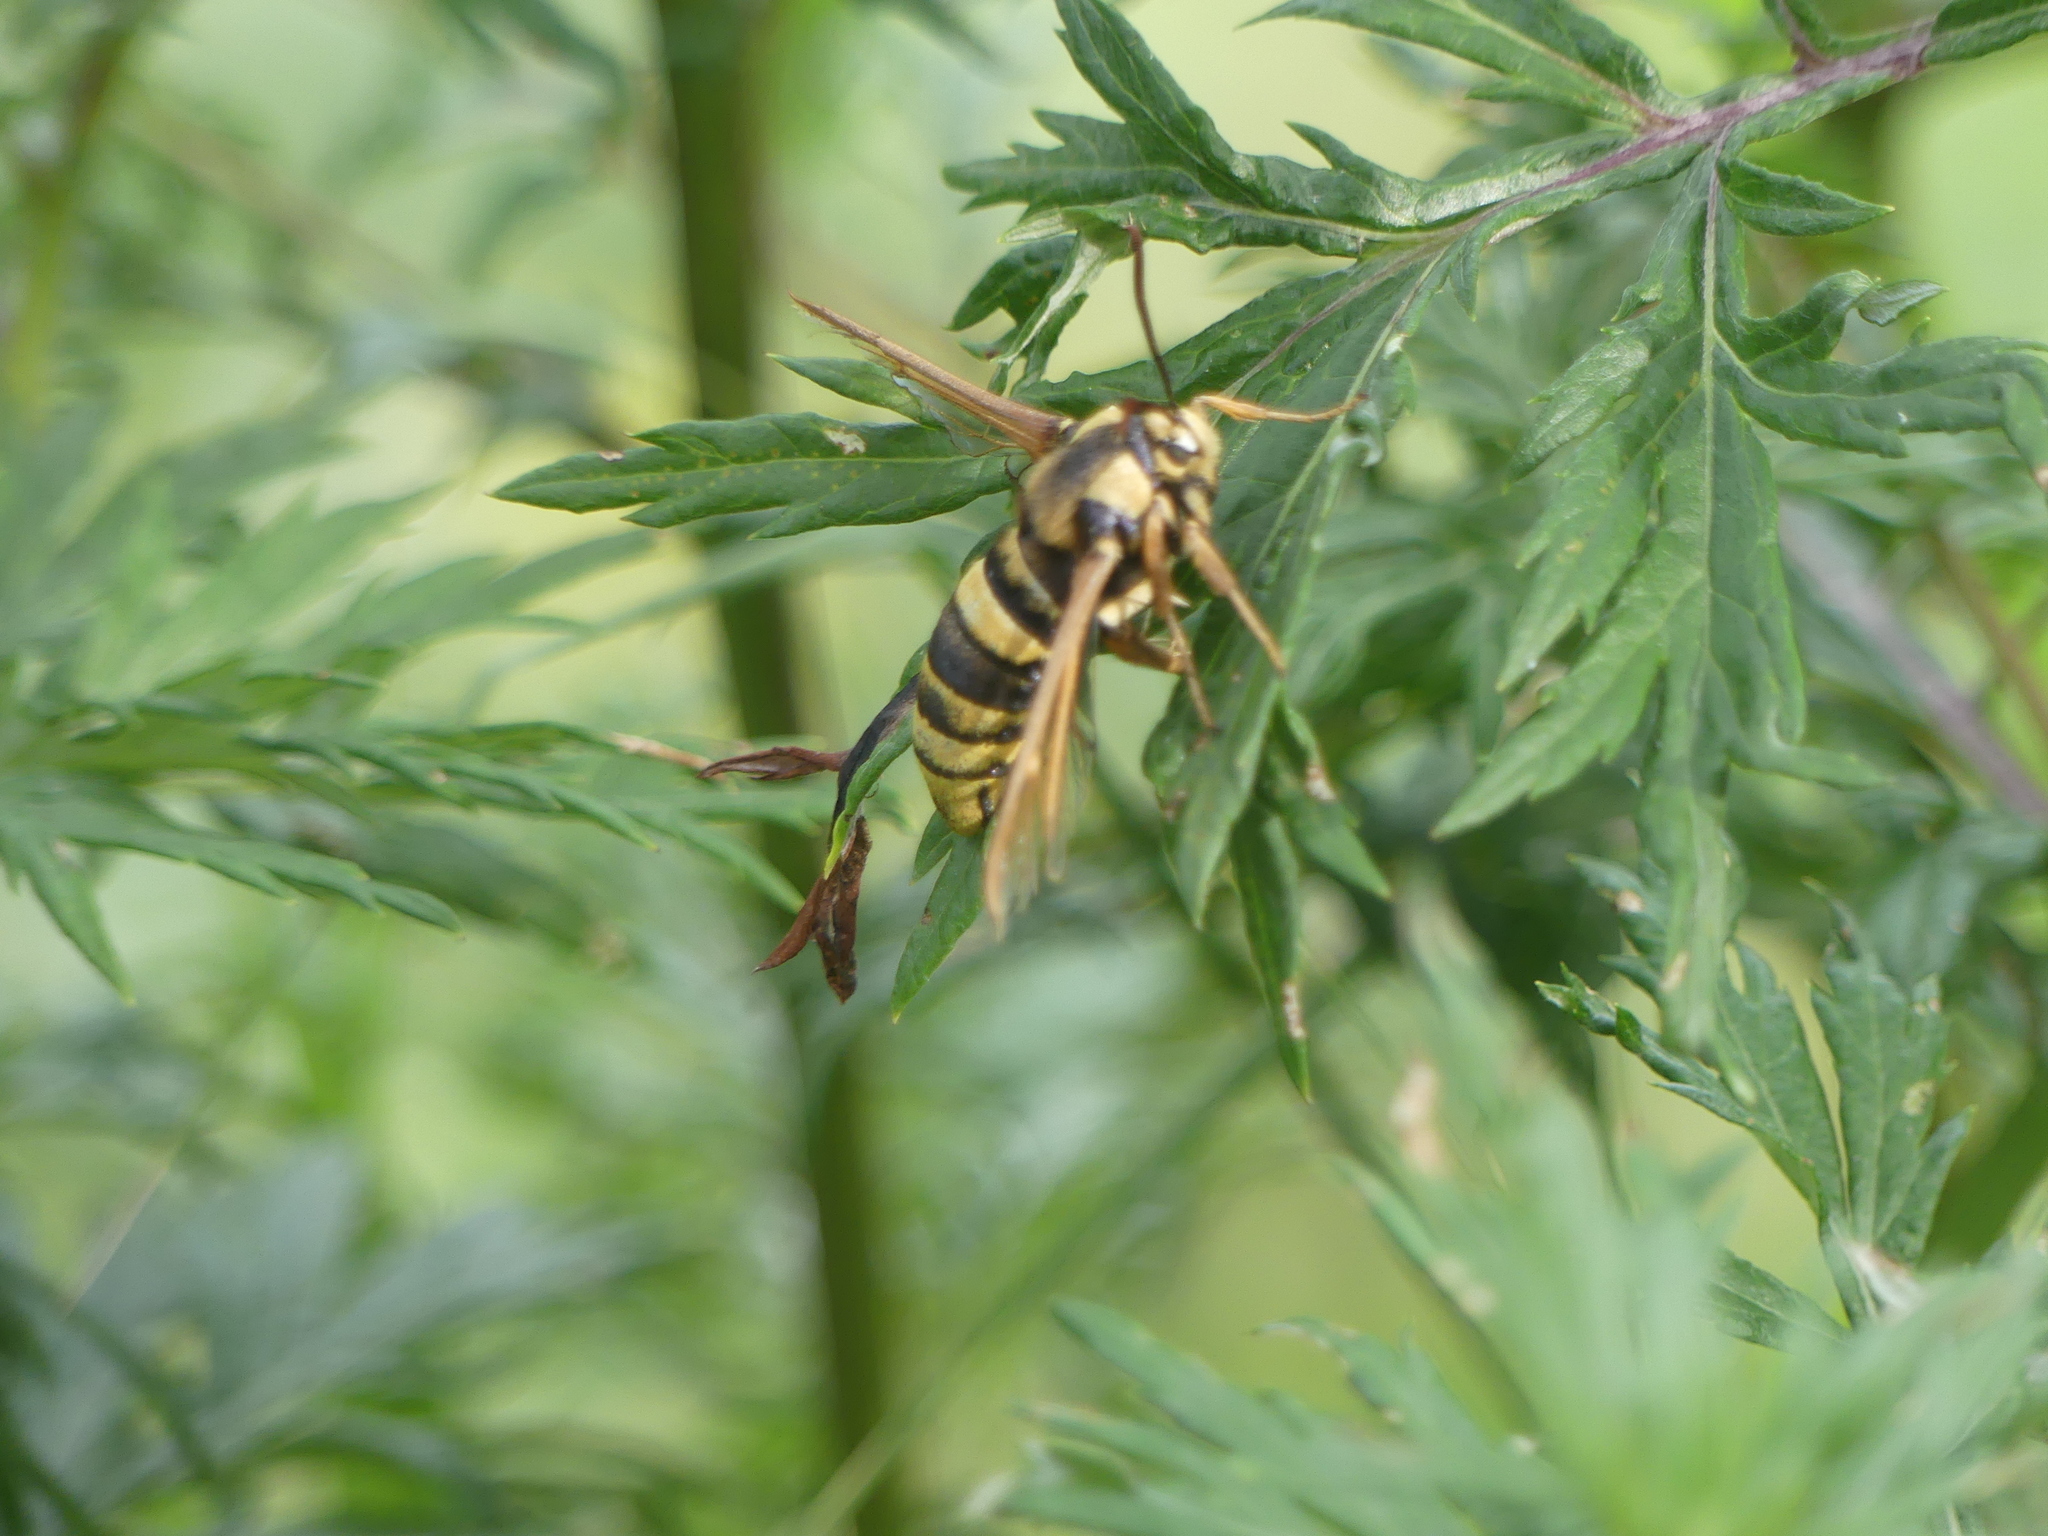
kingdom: Animalia
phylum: Arthropoda
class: Insecta
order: Lepidoptera
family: Sesiidae
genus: Sesia
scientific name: Sesia apiformis
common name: Hornet moth
